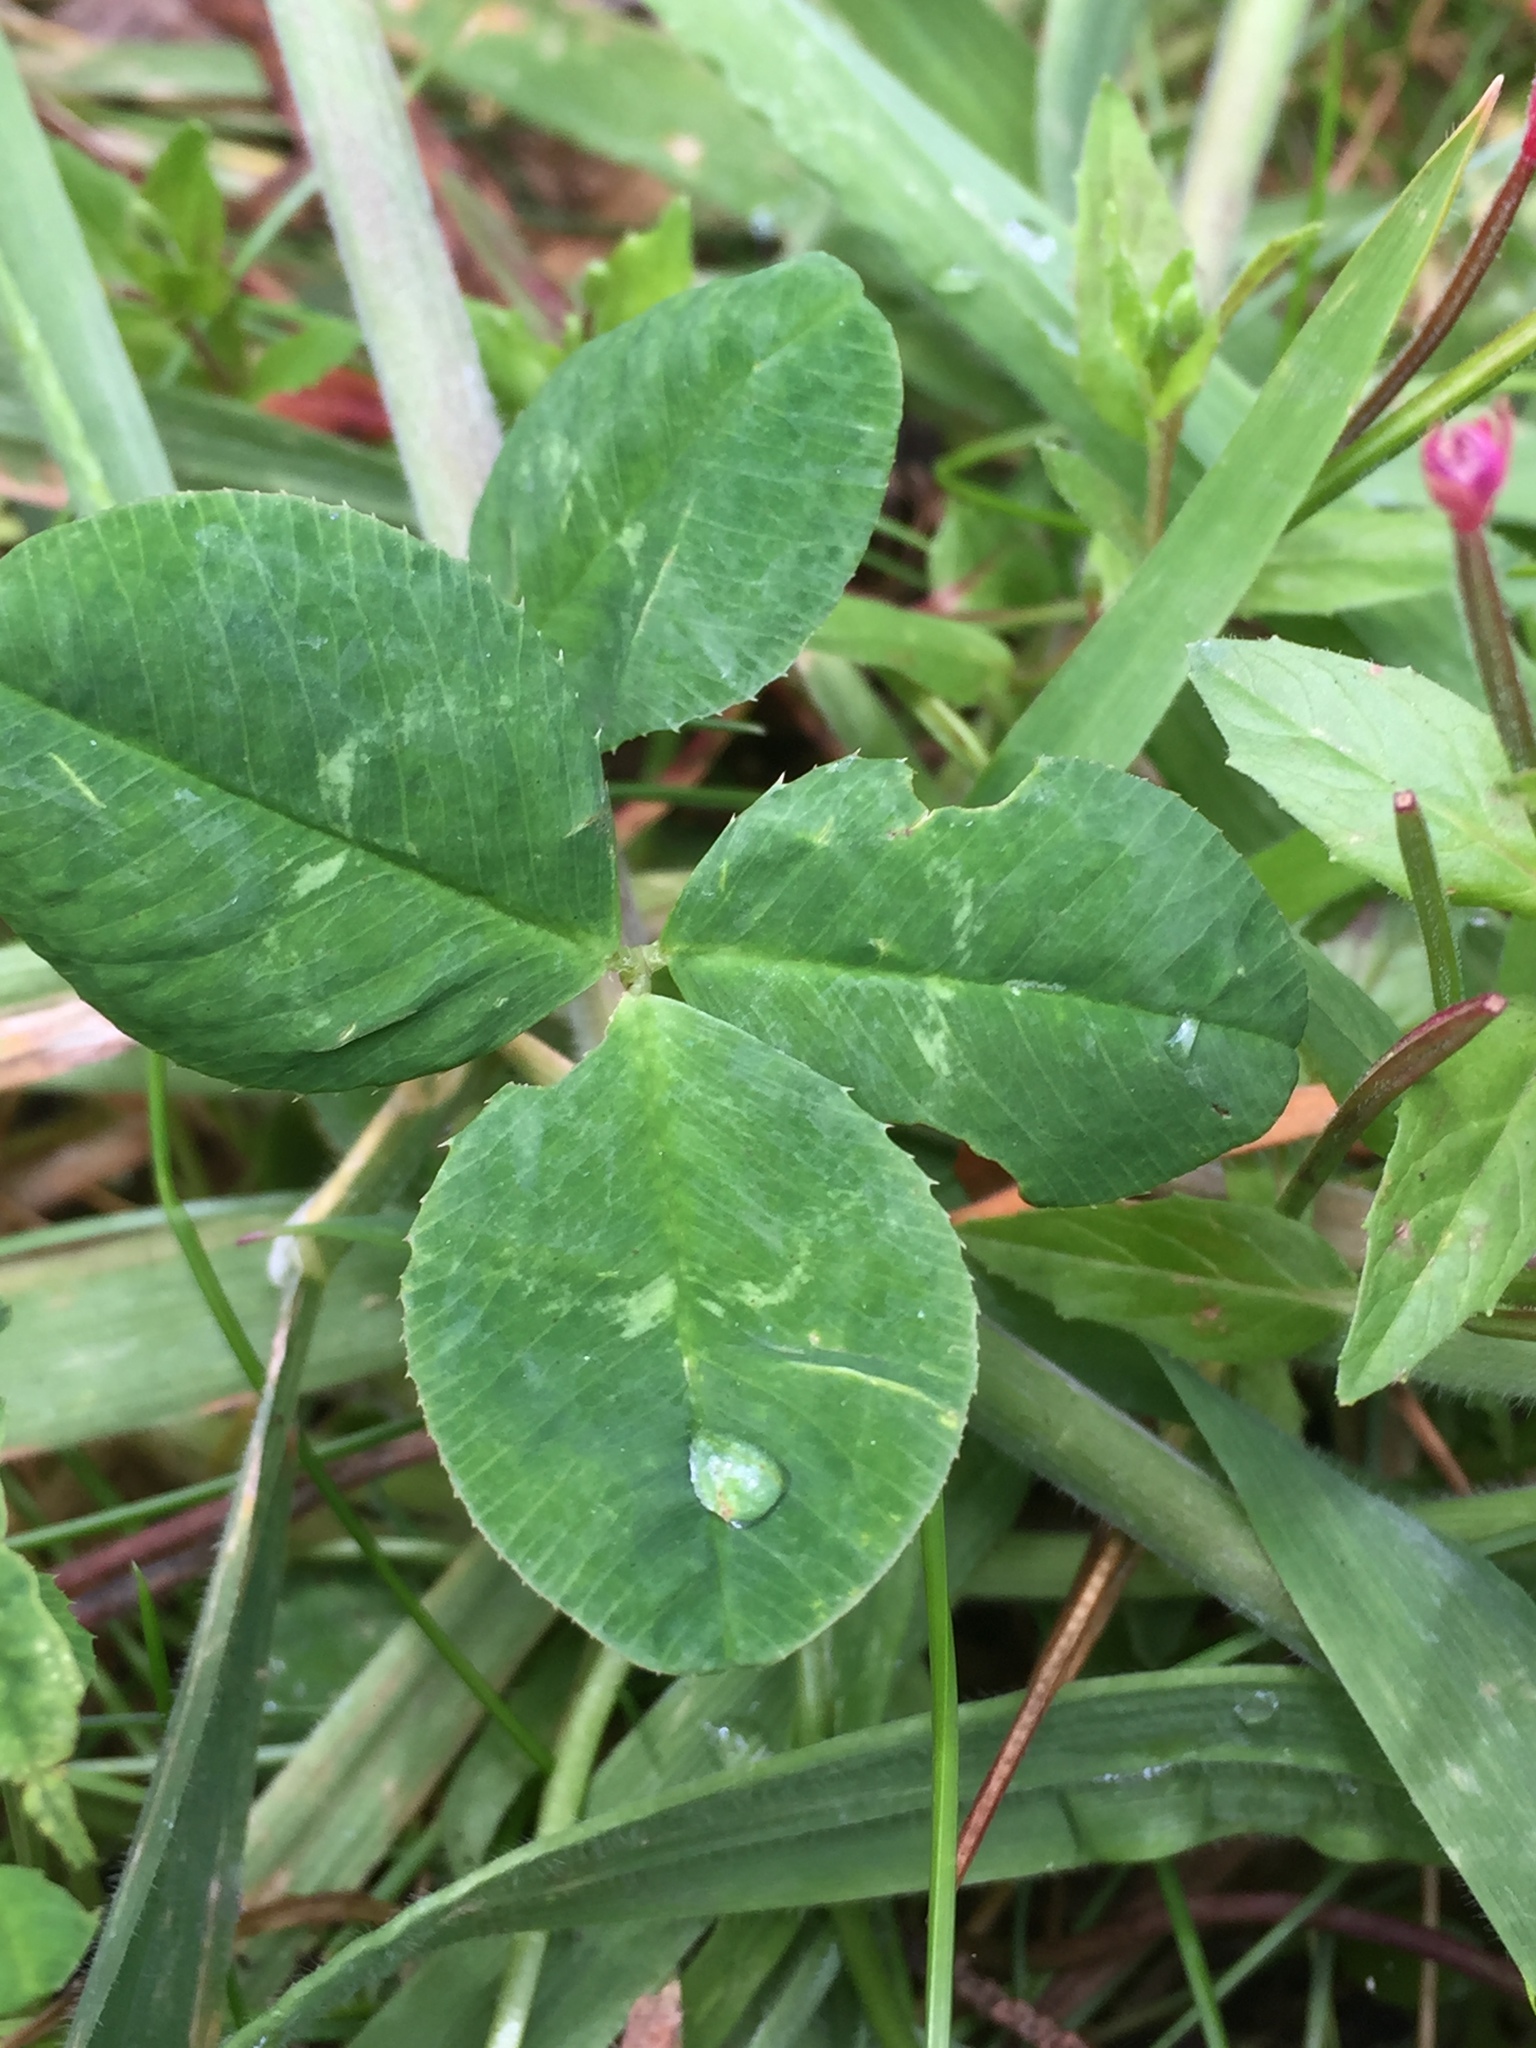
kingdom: Plantae
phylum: Tracheophyta
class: Magnoliopsida
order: Fabales
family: Fabaceae
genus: Trifolium
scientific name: Trifolium repens
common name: White clover
